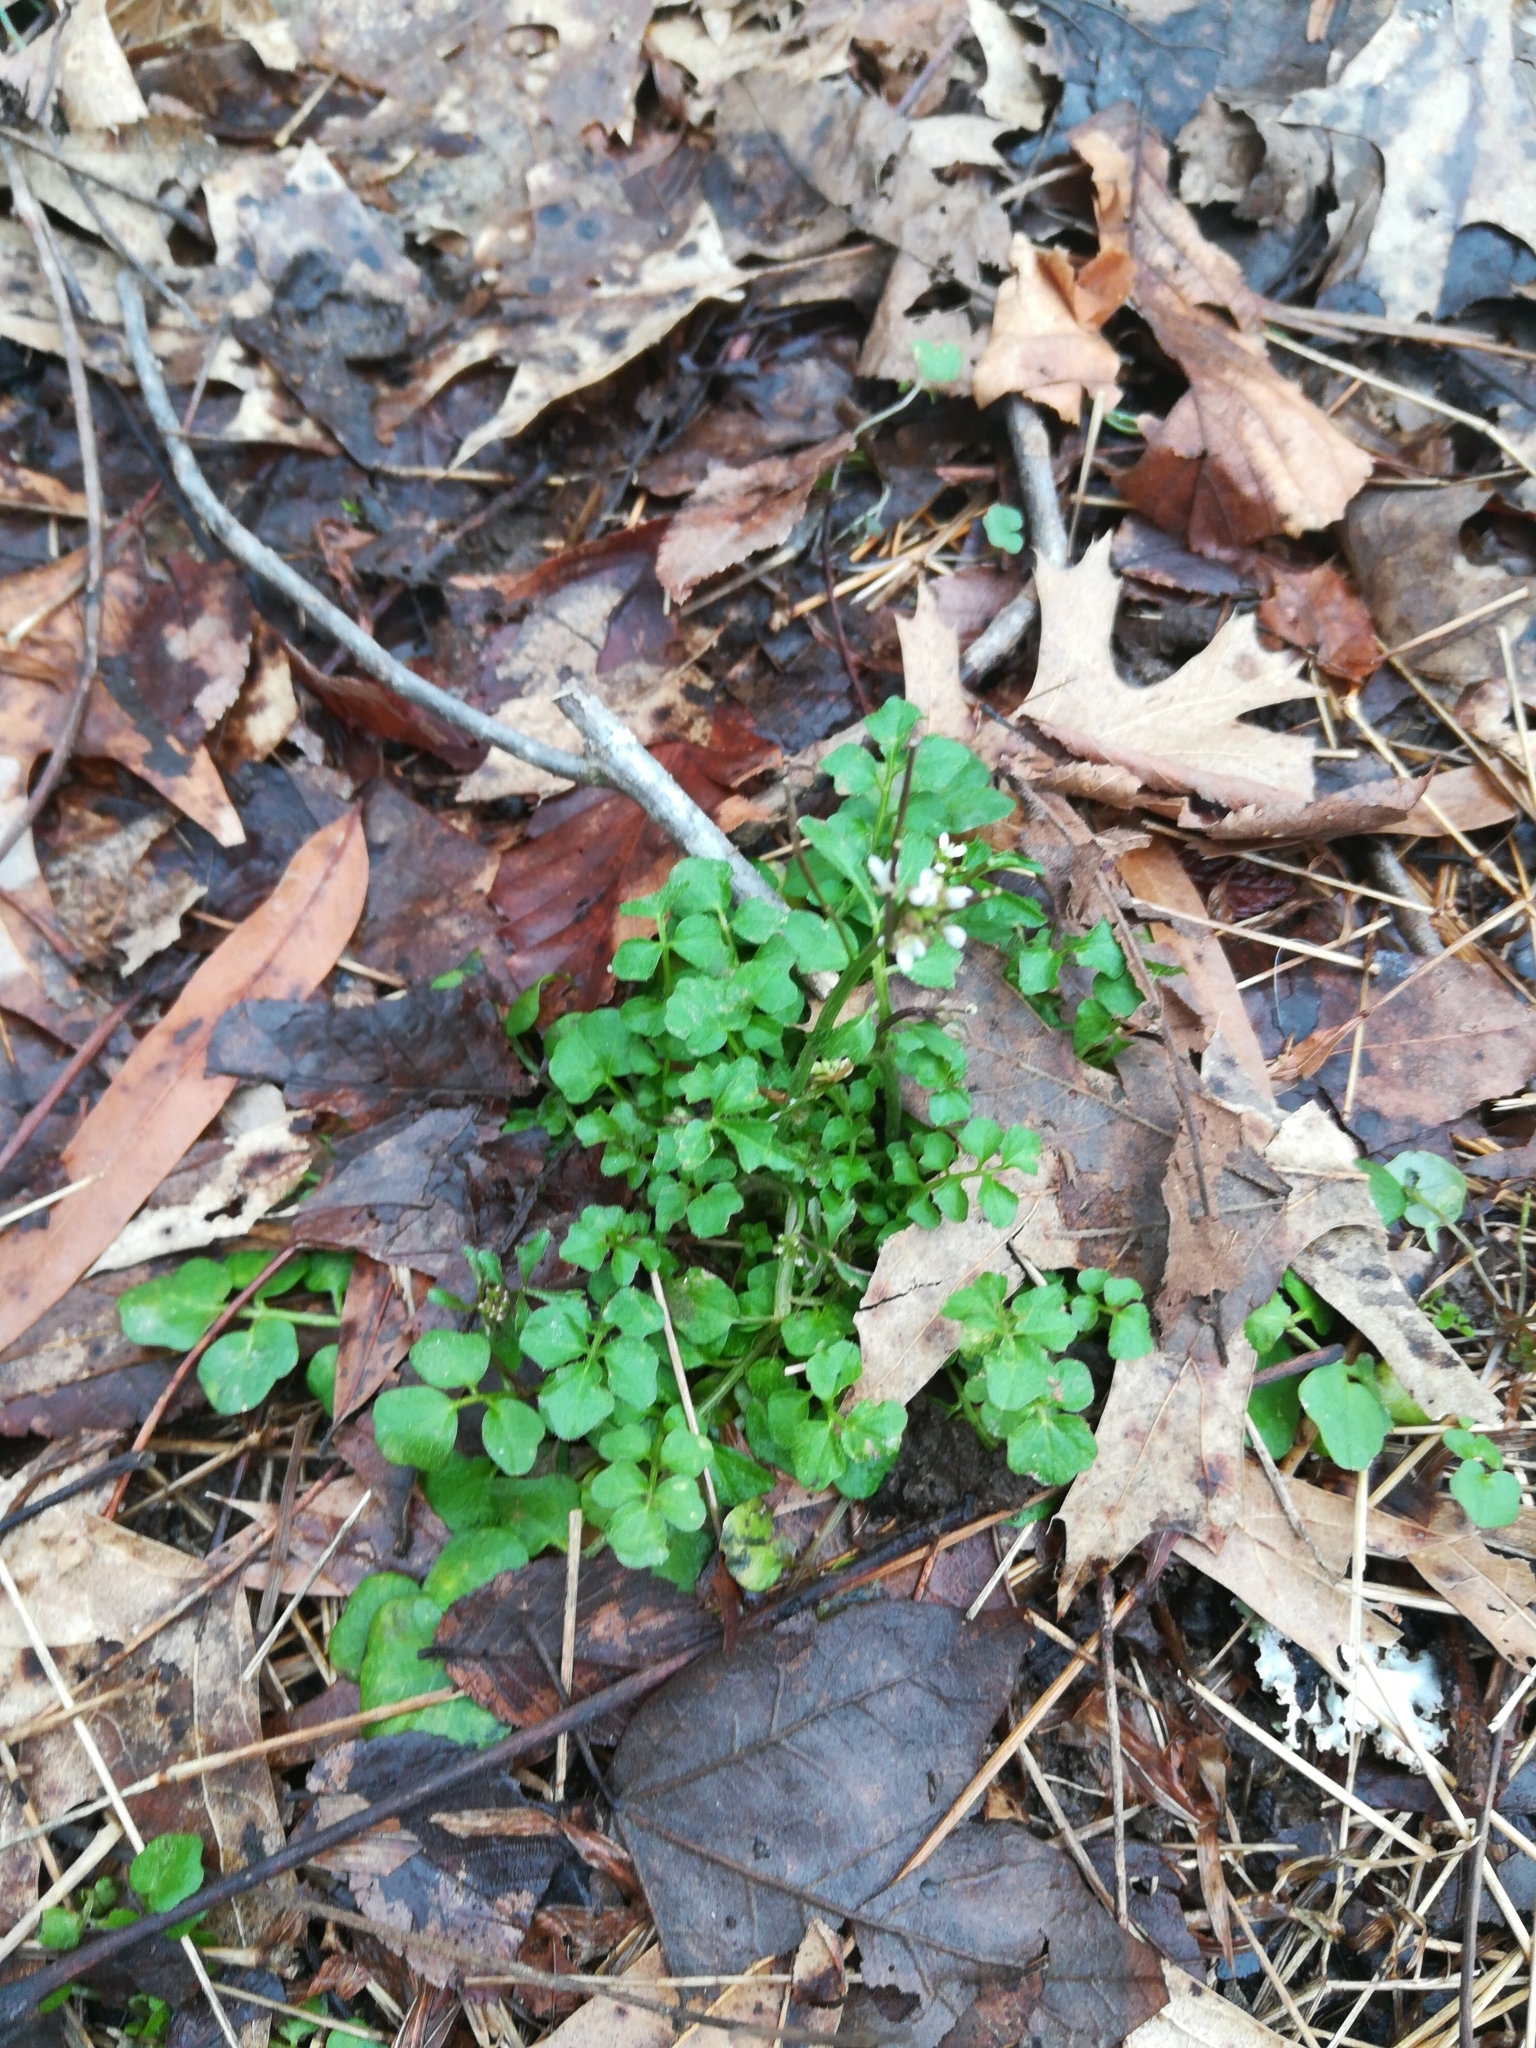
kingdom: Plantae
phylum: Tracheophyta
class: Magnoliopsida
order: Brassicales
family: Brassicaceae
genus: Cardamine
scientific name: Cardamine hirsuta
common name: Hairy bittercress
